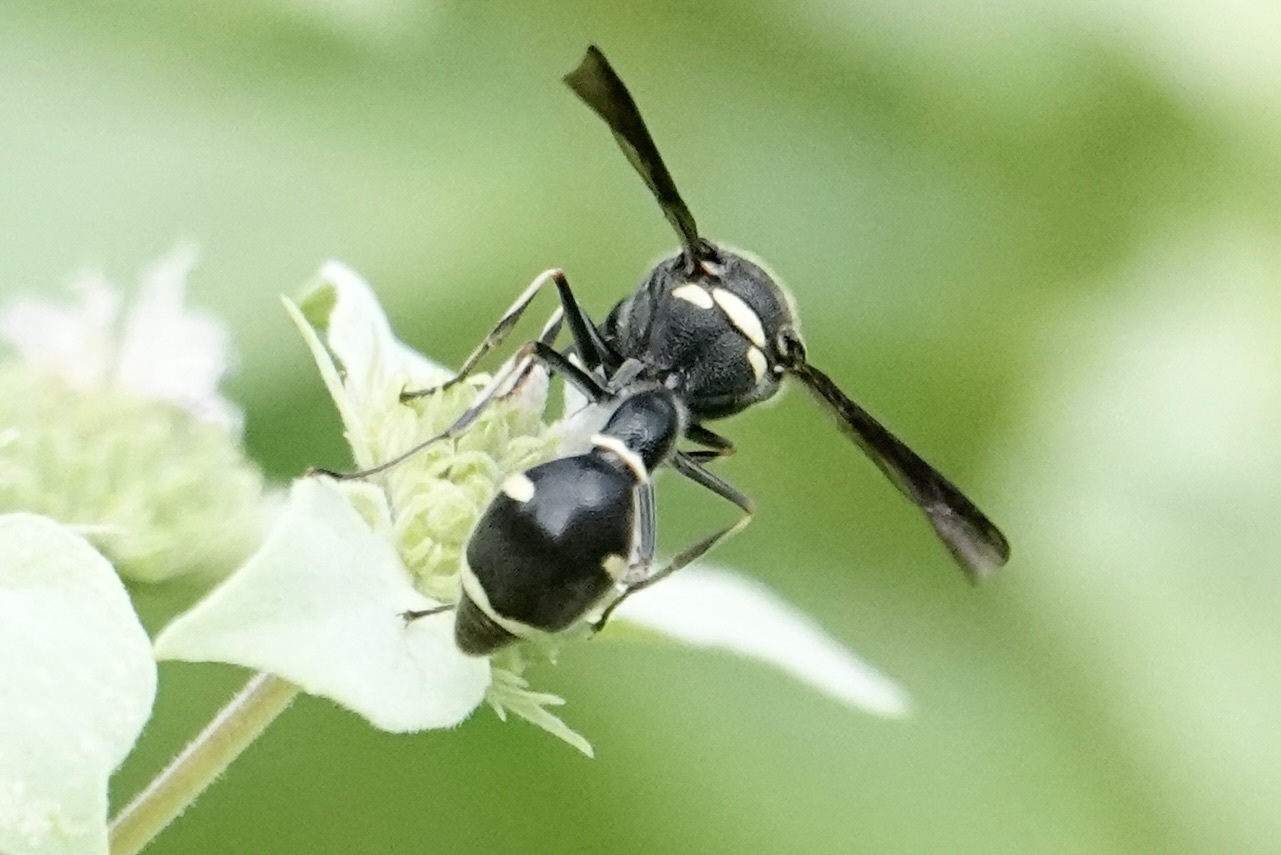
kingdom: Animalia
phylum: Arthropoda
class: Insecta
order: Hymenoptera
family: Vespidae
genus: Eumenes
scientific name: Eumenes fraternus
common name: Fraternal potter wasp
